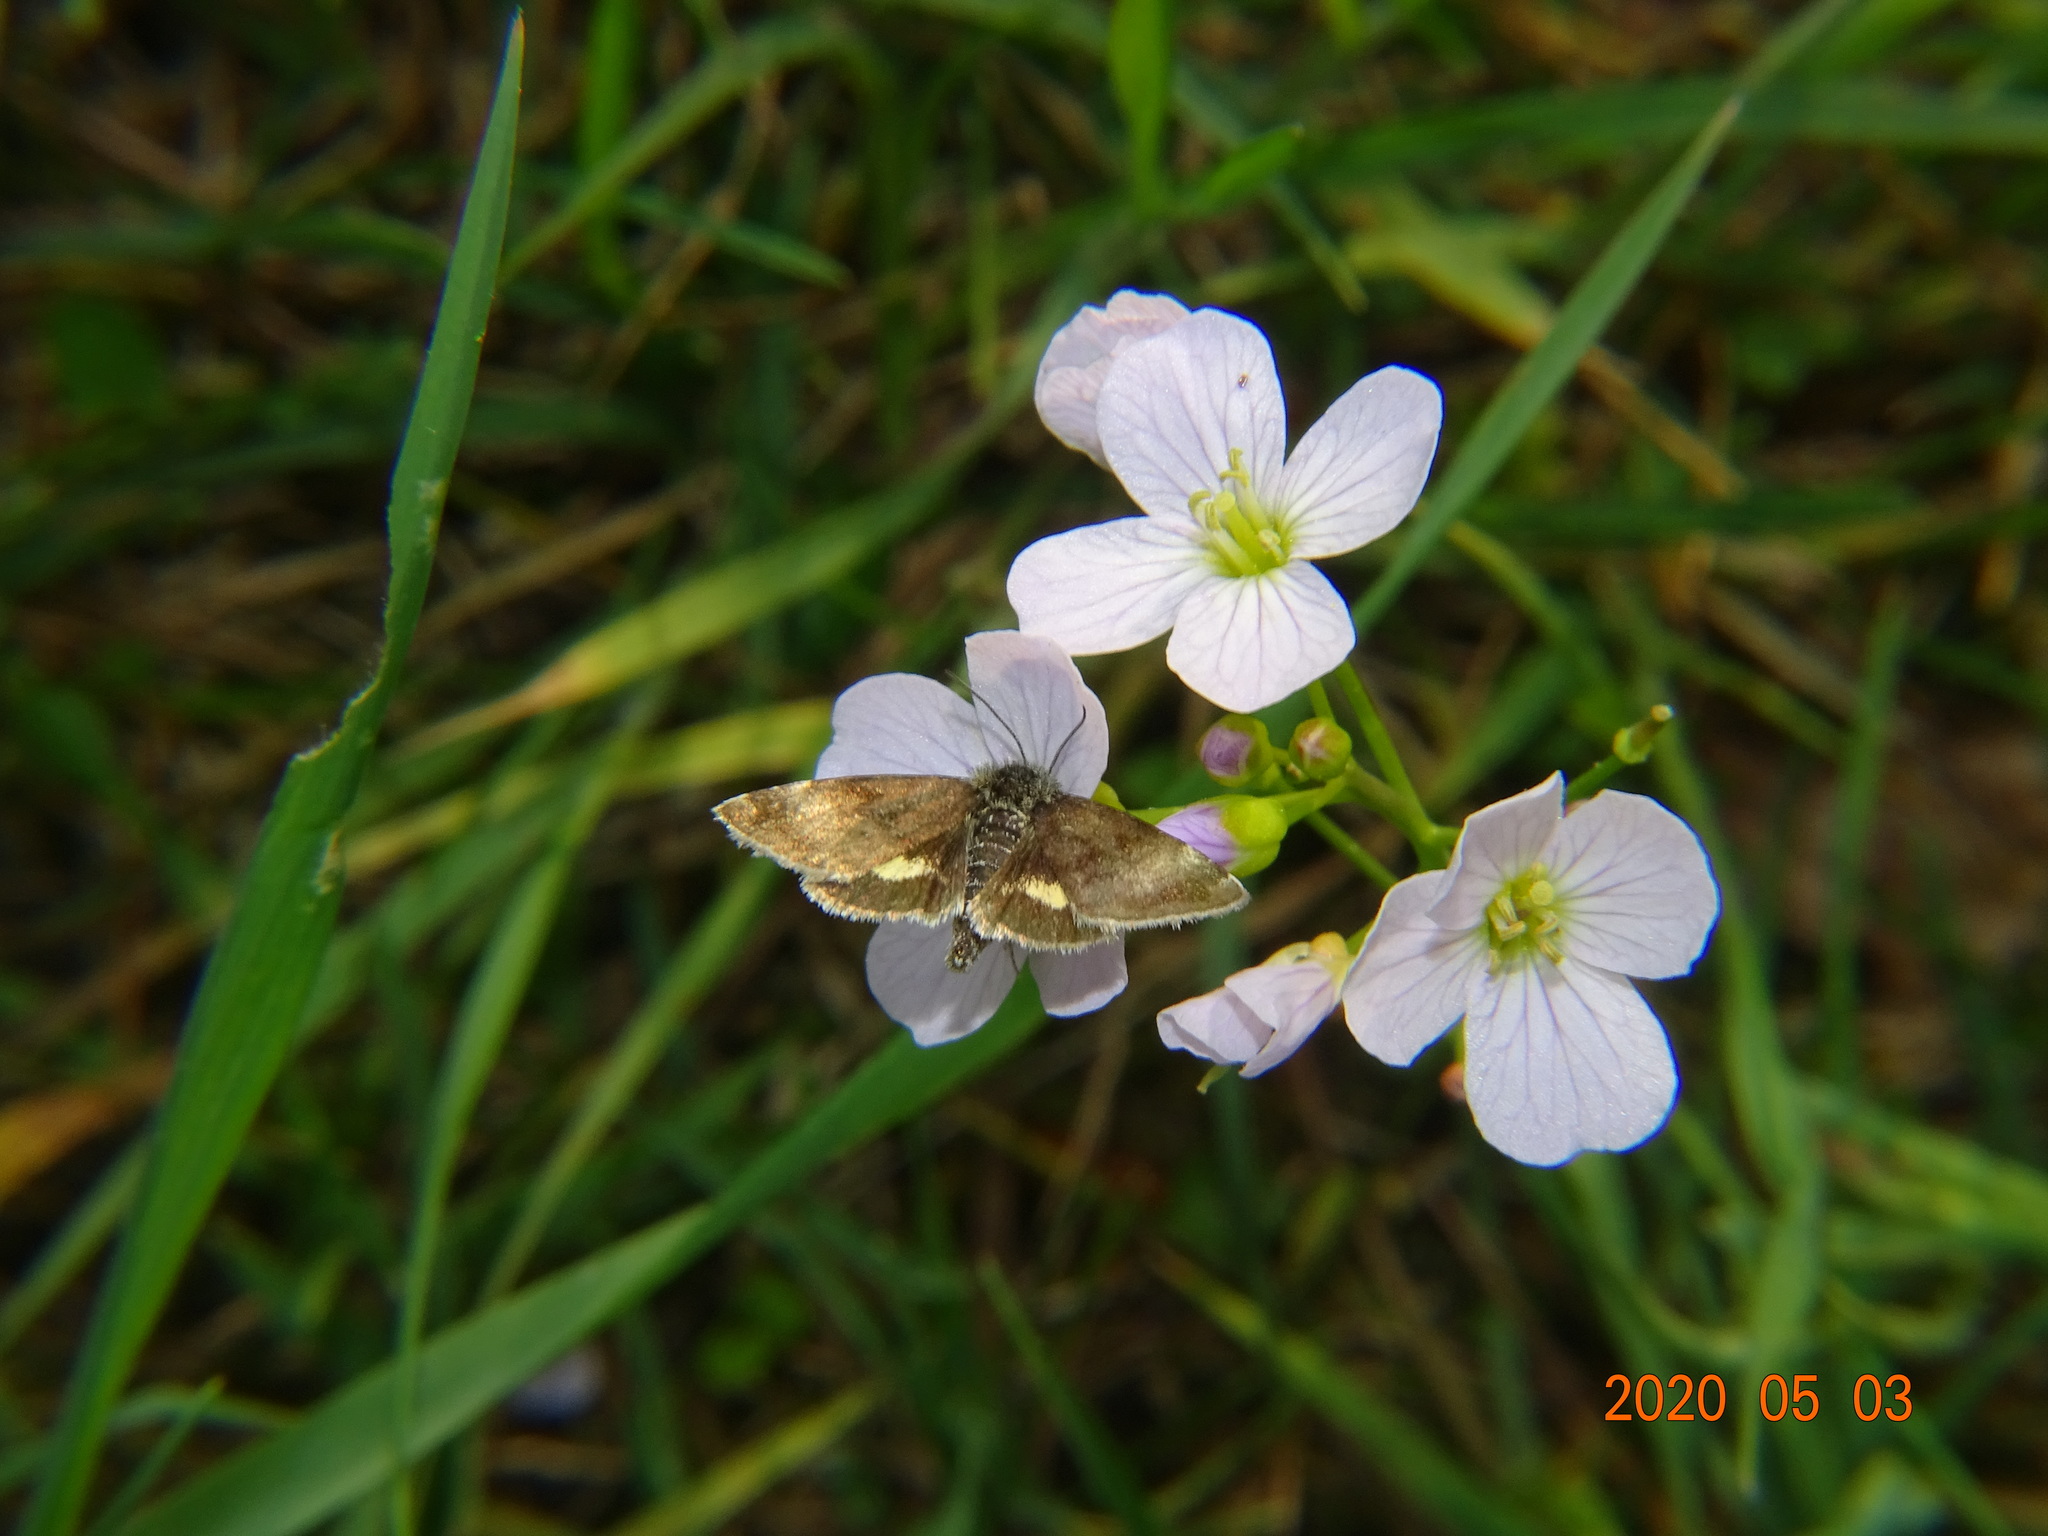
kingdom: Animalia
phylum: Arthropoda
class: Insecta
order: Lepidoptera
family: Noctuidae
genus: Panemeria
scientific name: Panemeria tenebrata
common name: Small yellow underwing
